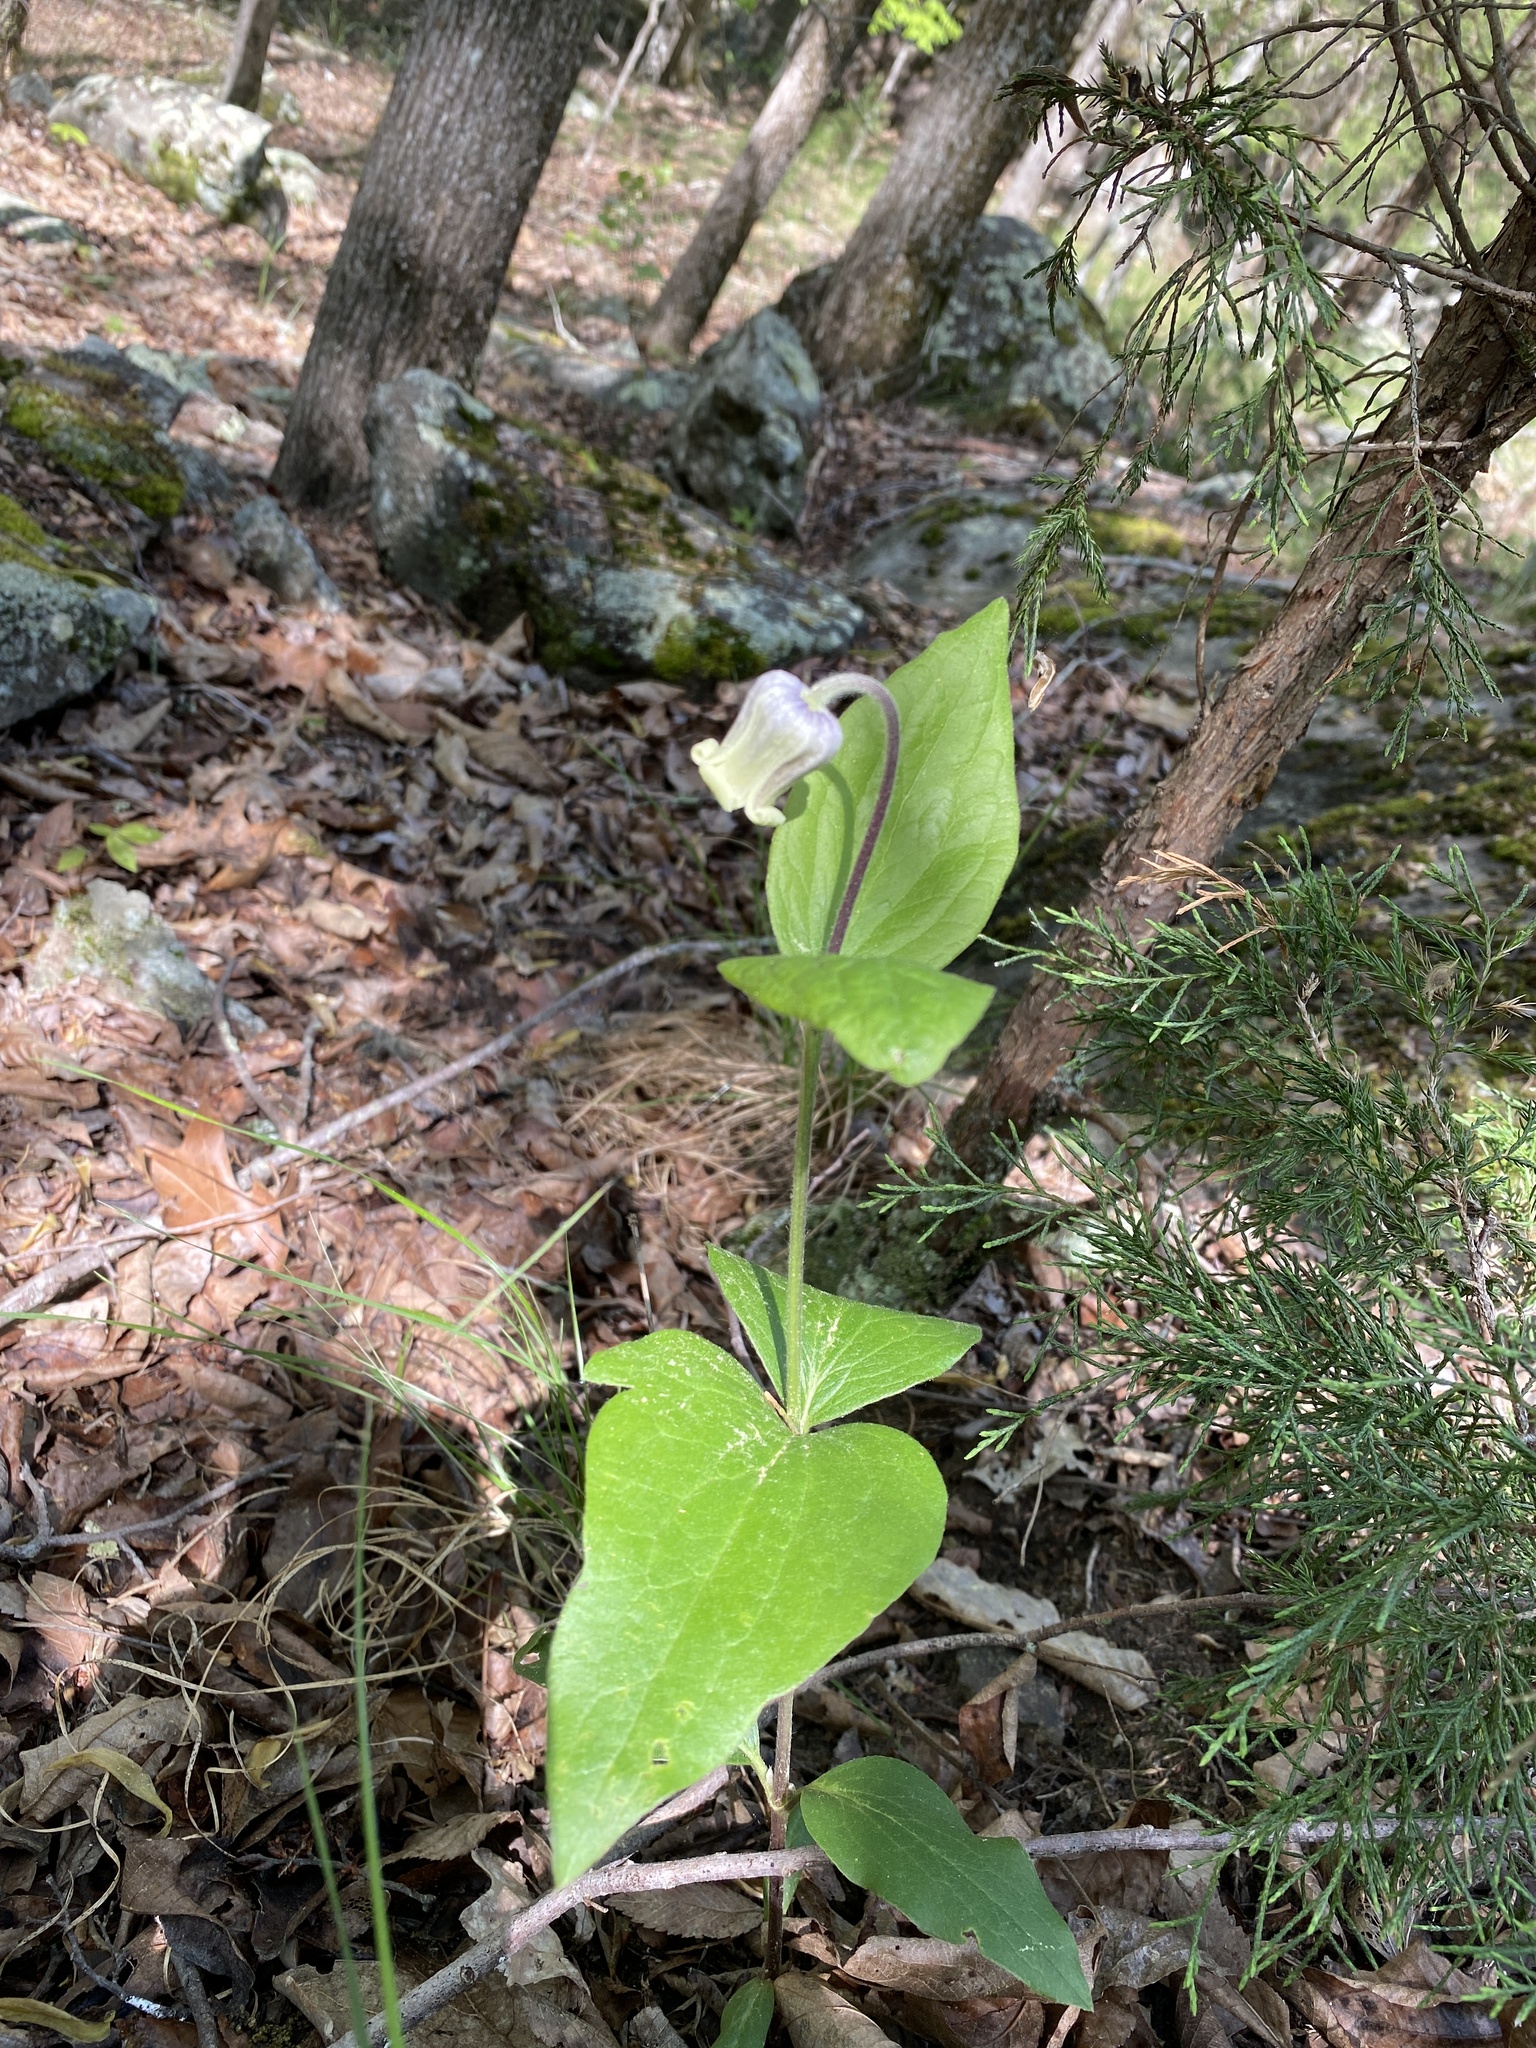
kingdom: Plantae
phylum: Tracheophyta
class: Magnoliopsida
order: Ranunculales
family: Ranunculaceae
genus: Clematis
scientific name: Clematis ochroleuca
